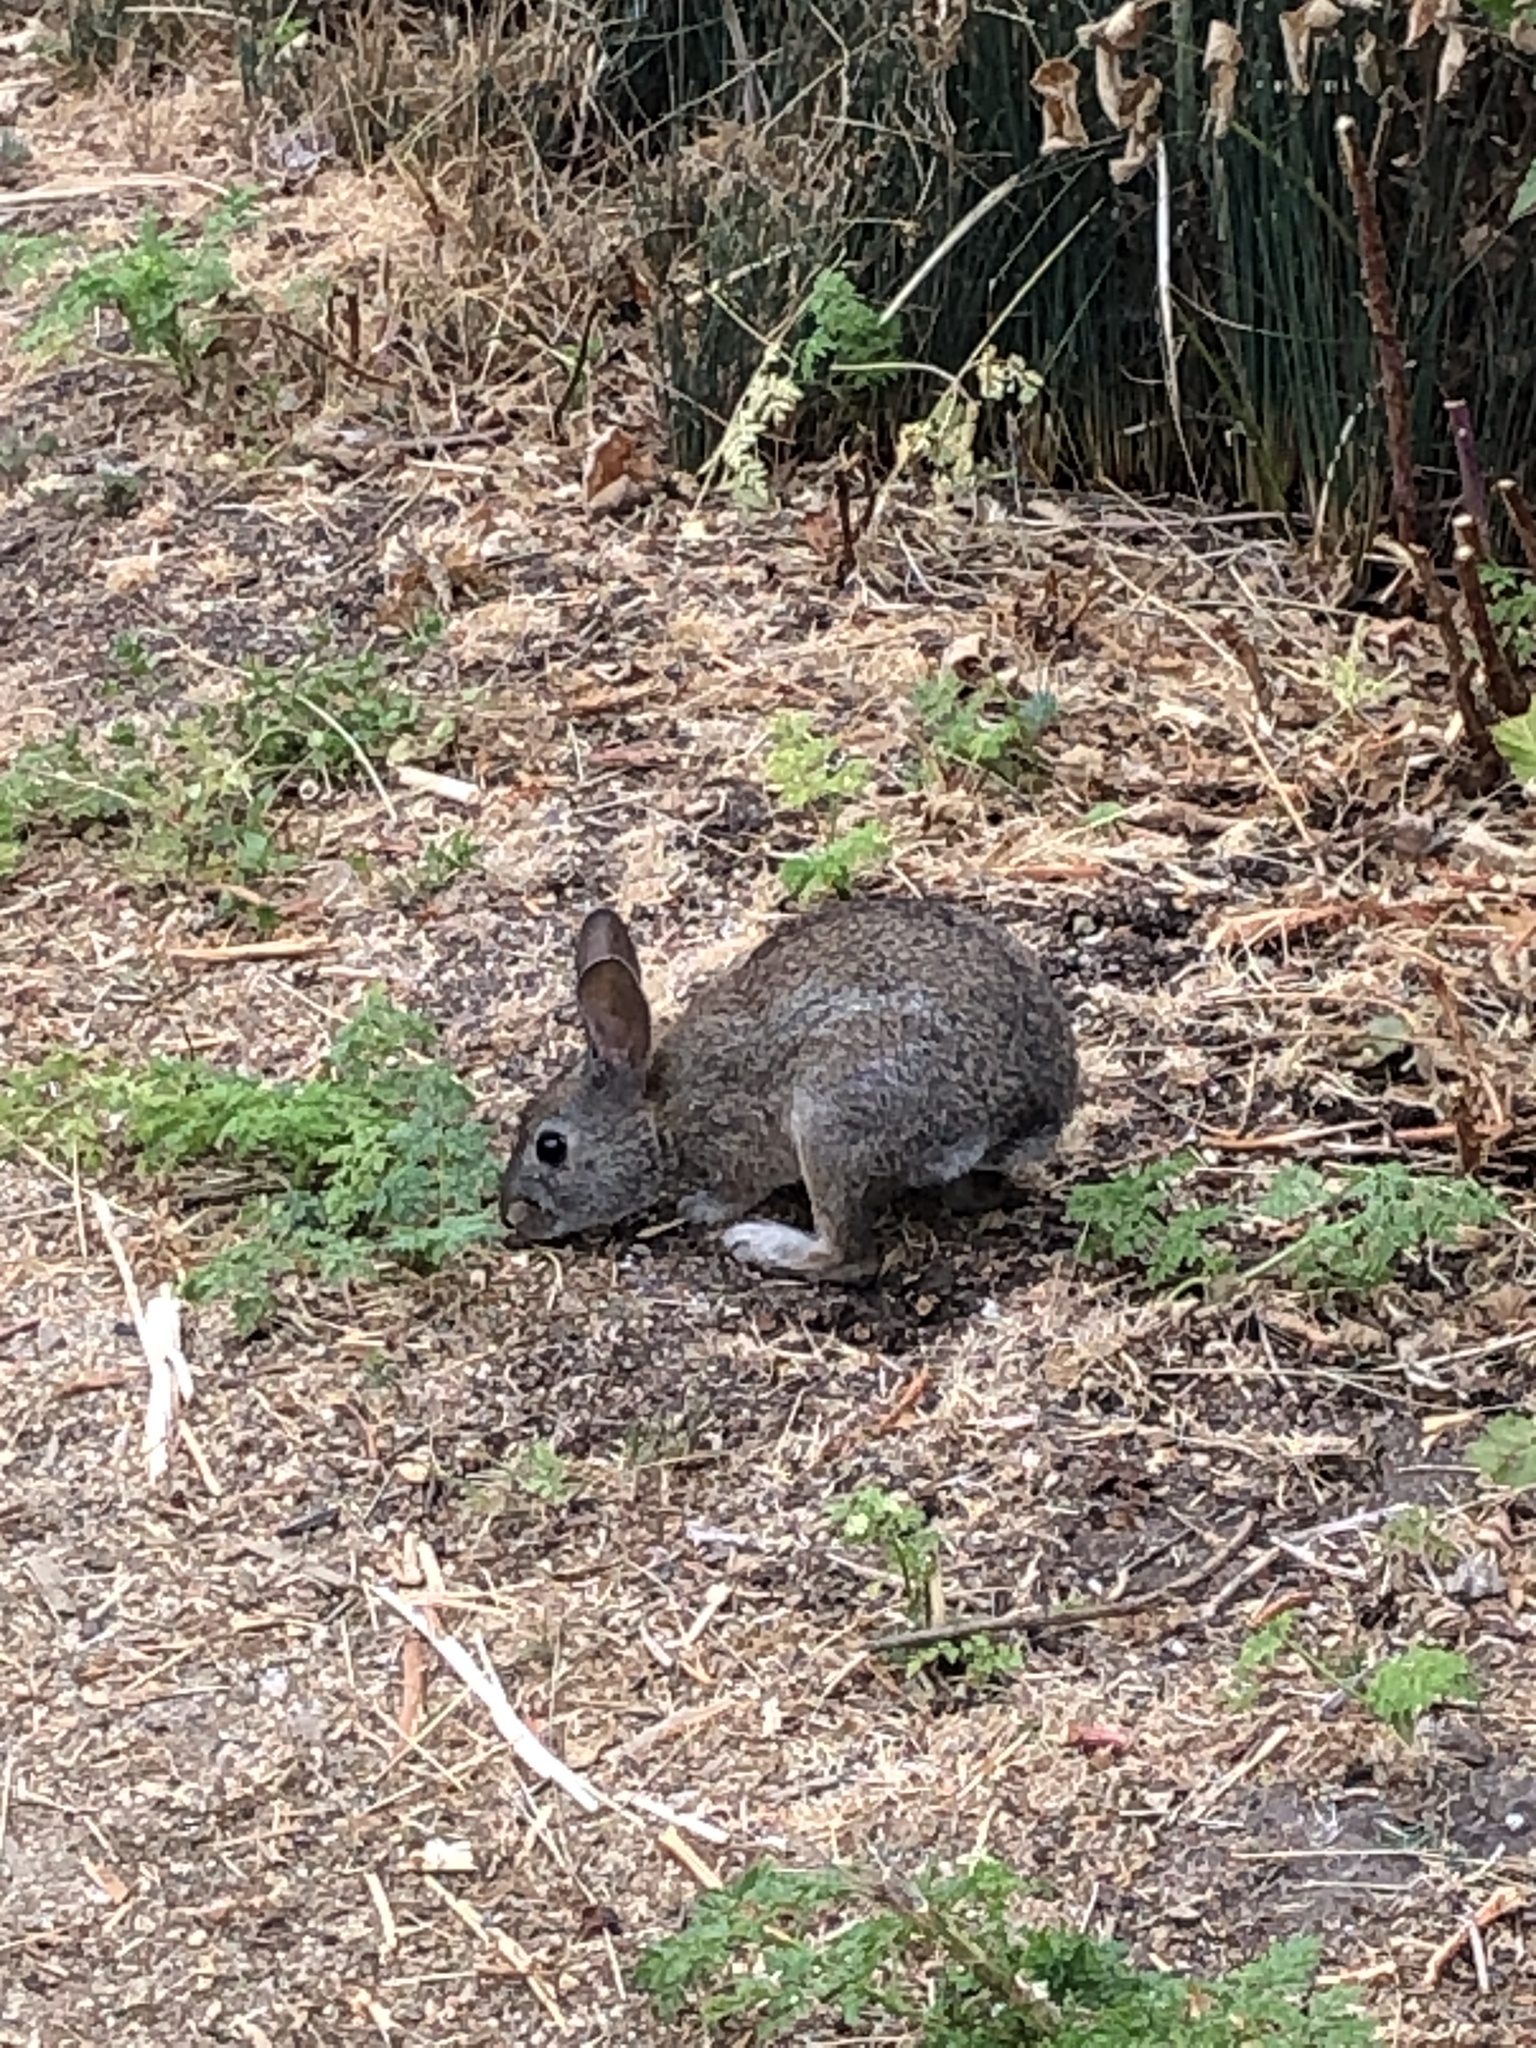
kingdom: Animalia
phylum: Chordata
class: Mammalia
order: Lagomorpha
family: Leporidae
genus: Sylvilagus
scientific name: Sylvilagus bachmani
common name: Brush rabbit
